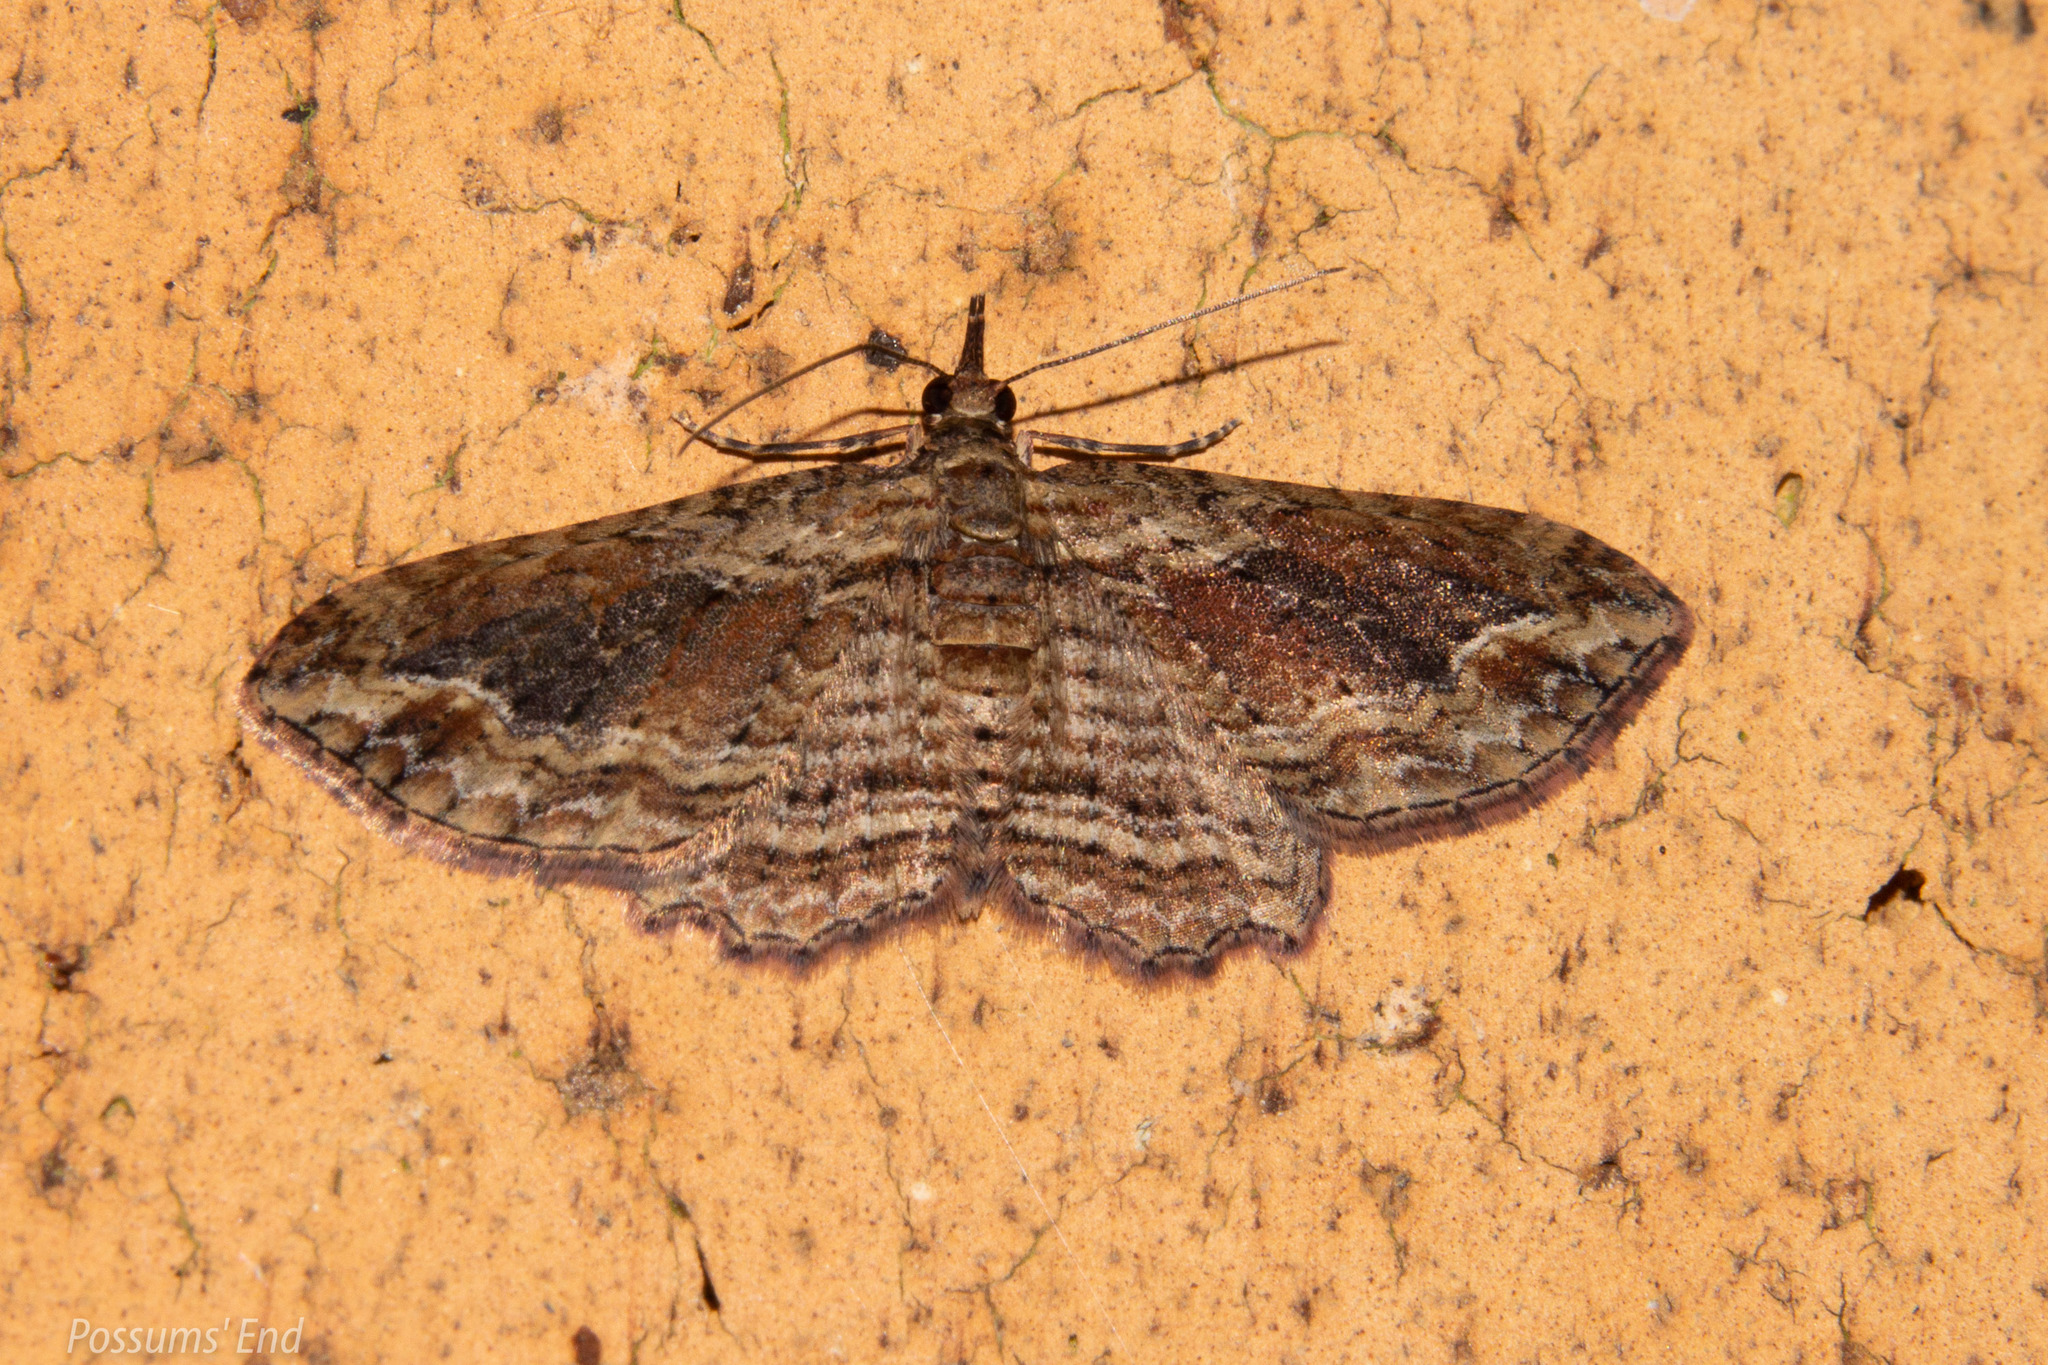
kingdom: Animalia
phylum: Arthropoda
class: Insecta
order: Lepidoptera
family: Geometridae
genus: Chloroclystis
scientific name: Chloroclystis filata
